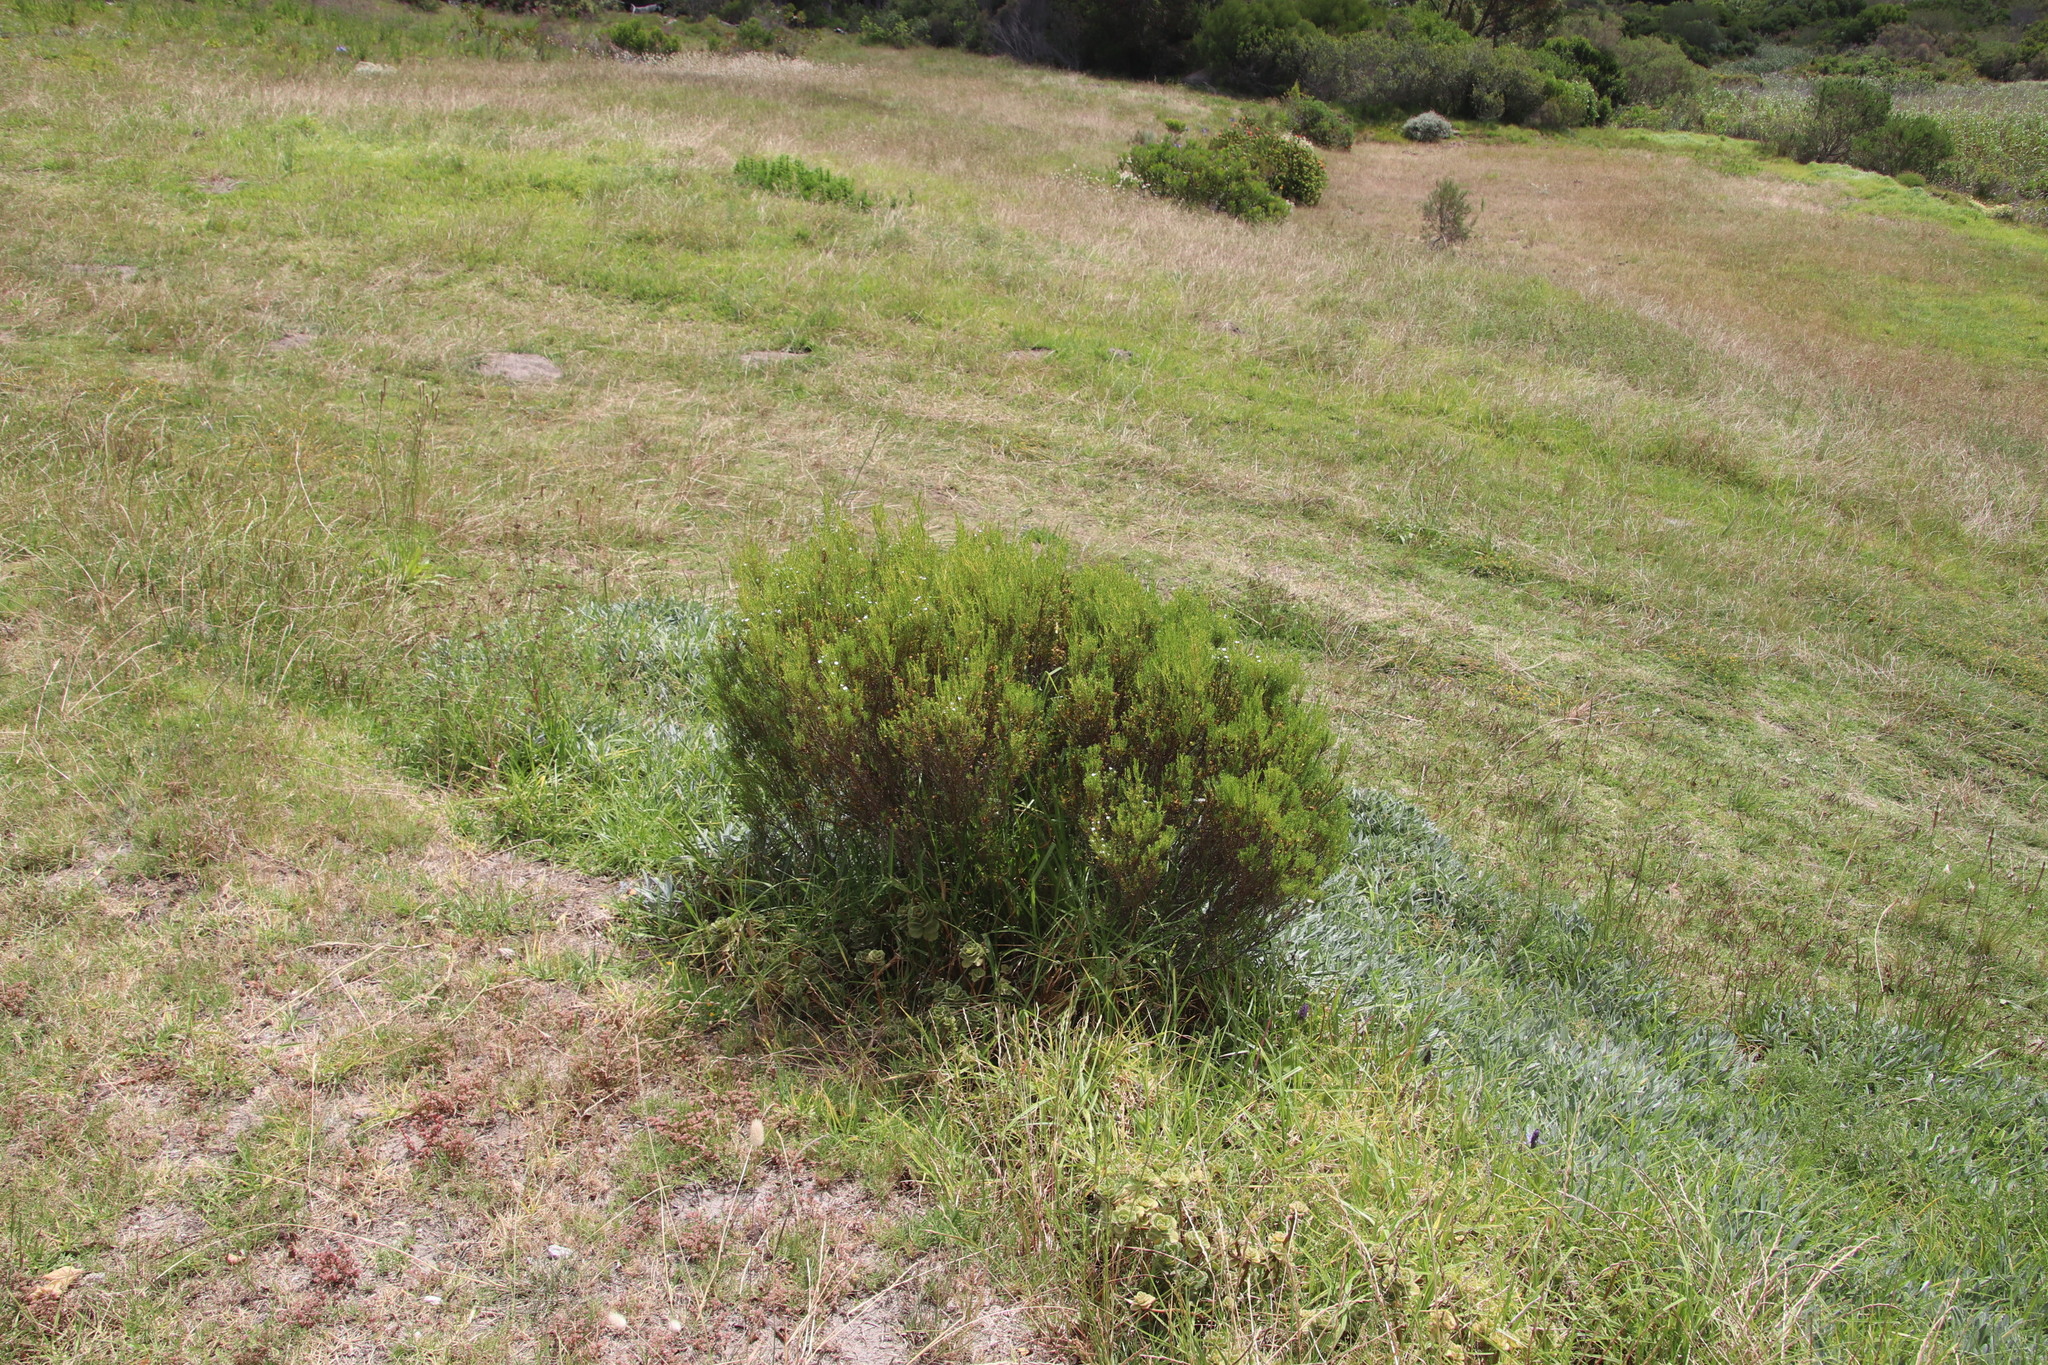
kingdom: Plantae
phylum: Tracheophyta
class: Magnoliopsida
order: Sapindales
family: Rutaceae
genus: Coleonema
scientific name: Coleonema album
